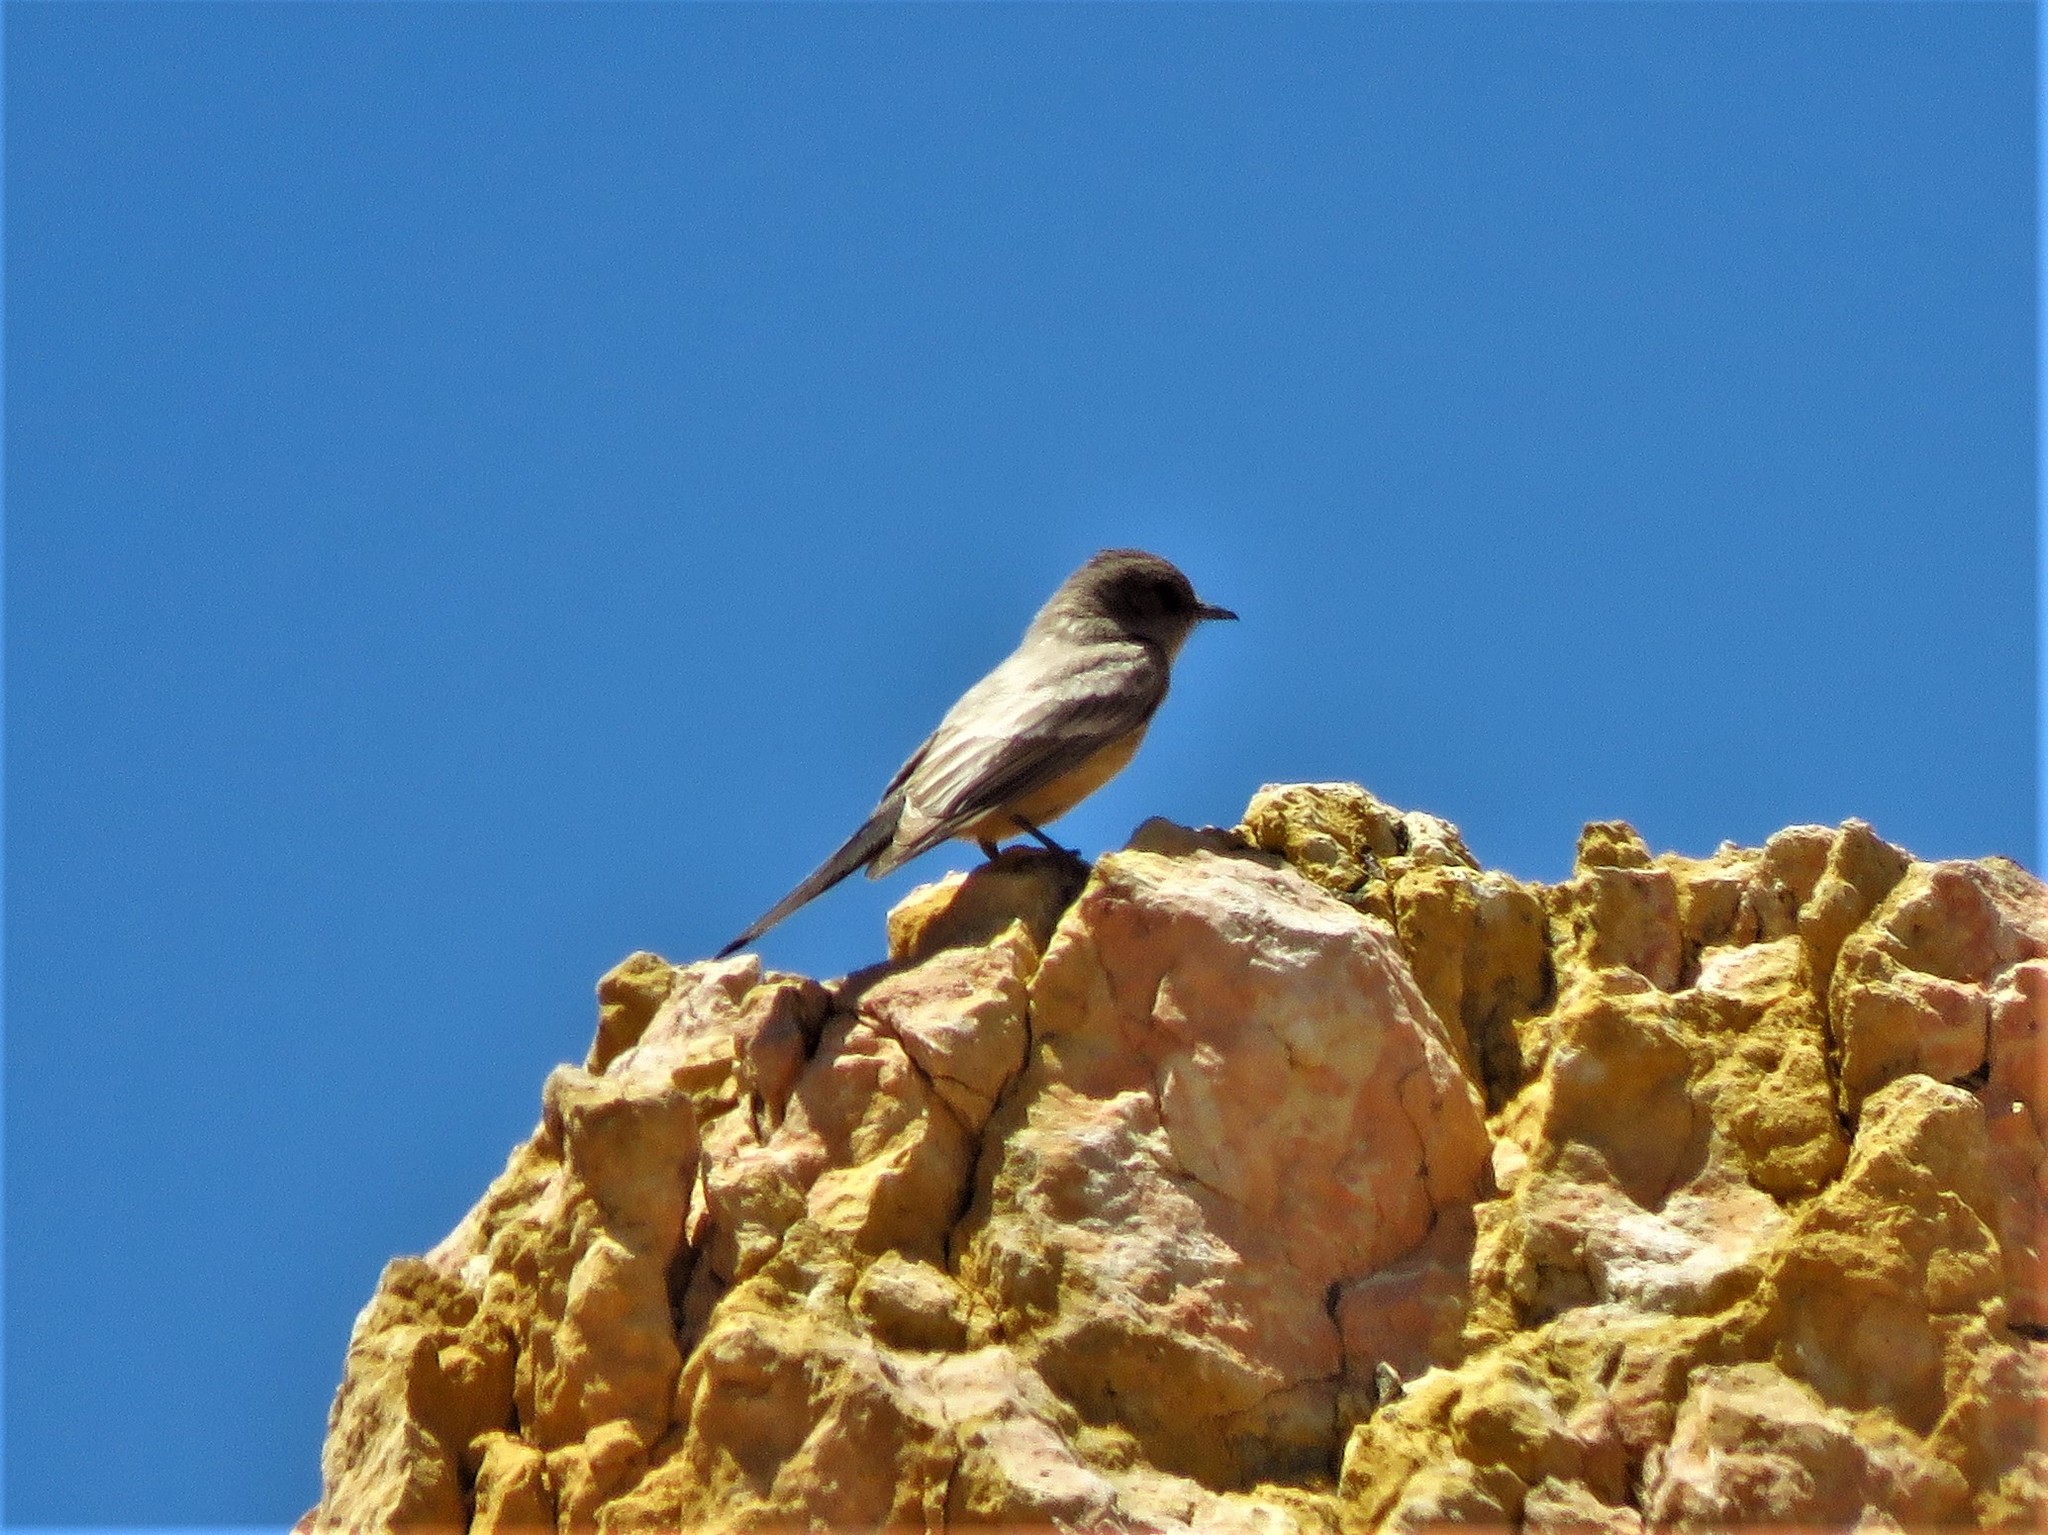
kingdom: Animalia
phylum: Chordata
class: Aves
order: Passeriformes
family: Tyrannidae
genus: Sayornis
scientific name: Sayornis saya
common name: Say's phoebe
